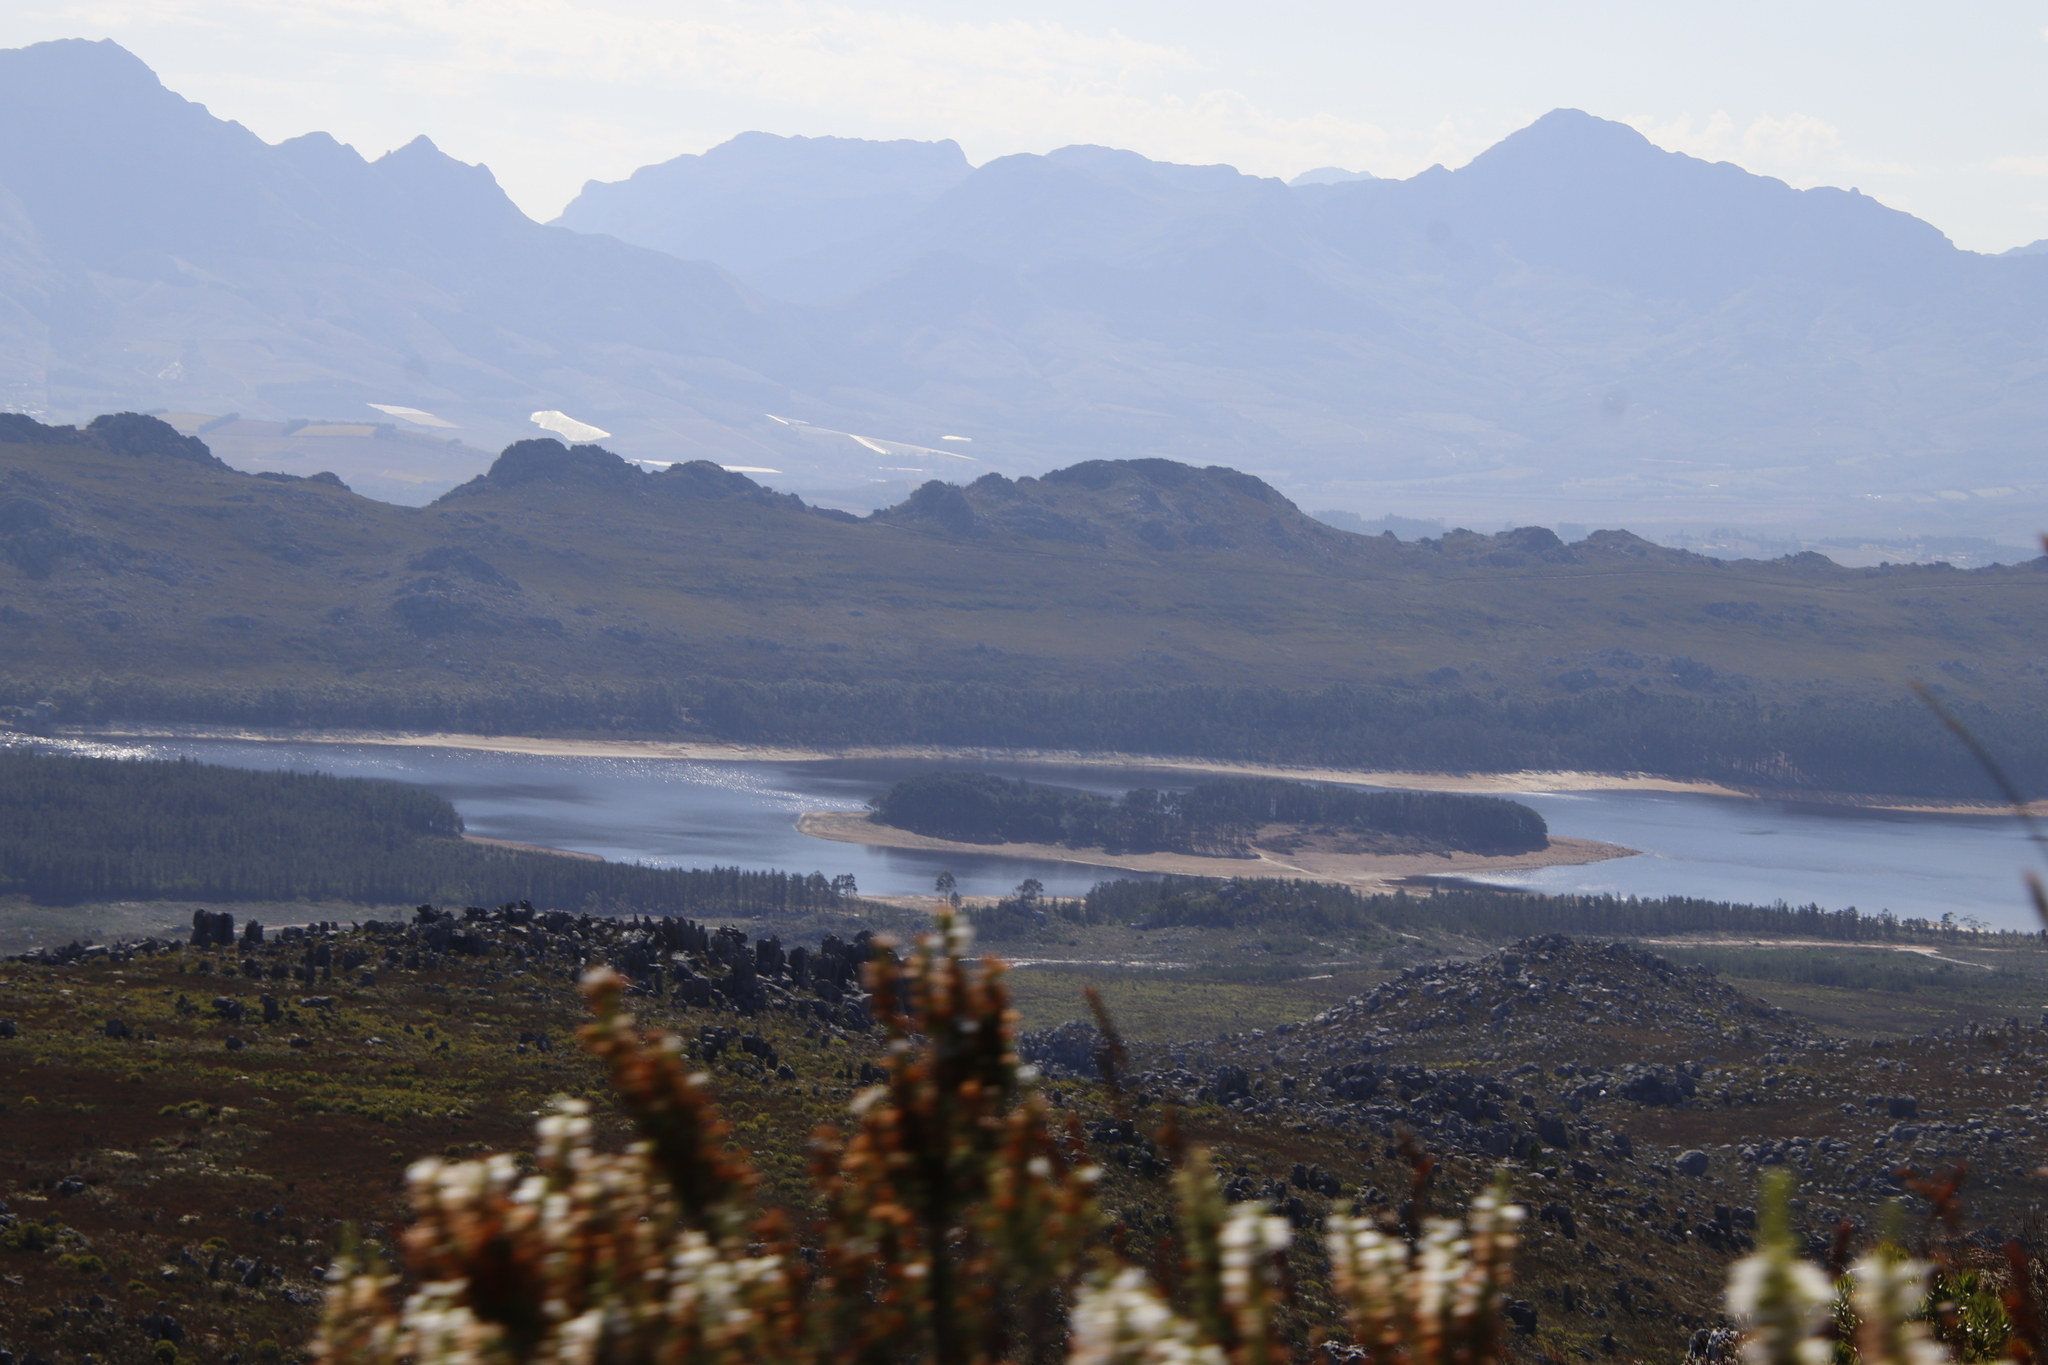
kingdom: Plantae
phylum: Tracheophyta
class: Pinopsida
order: Pinales
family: Pinaceae
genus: Pinus
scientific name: Pinus radiata
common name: Monterey pine
